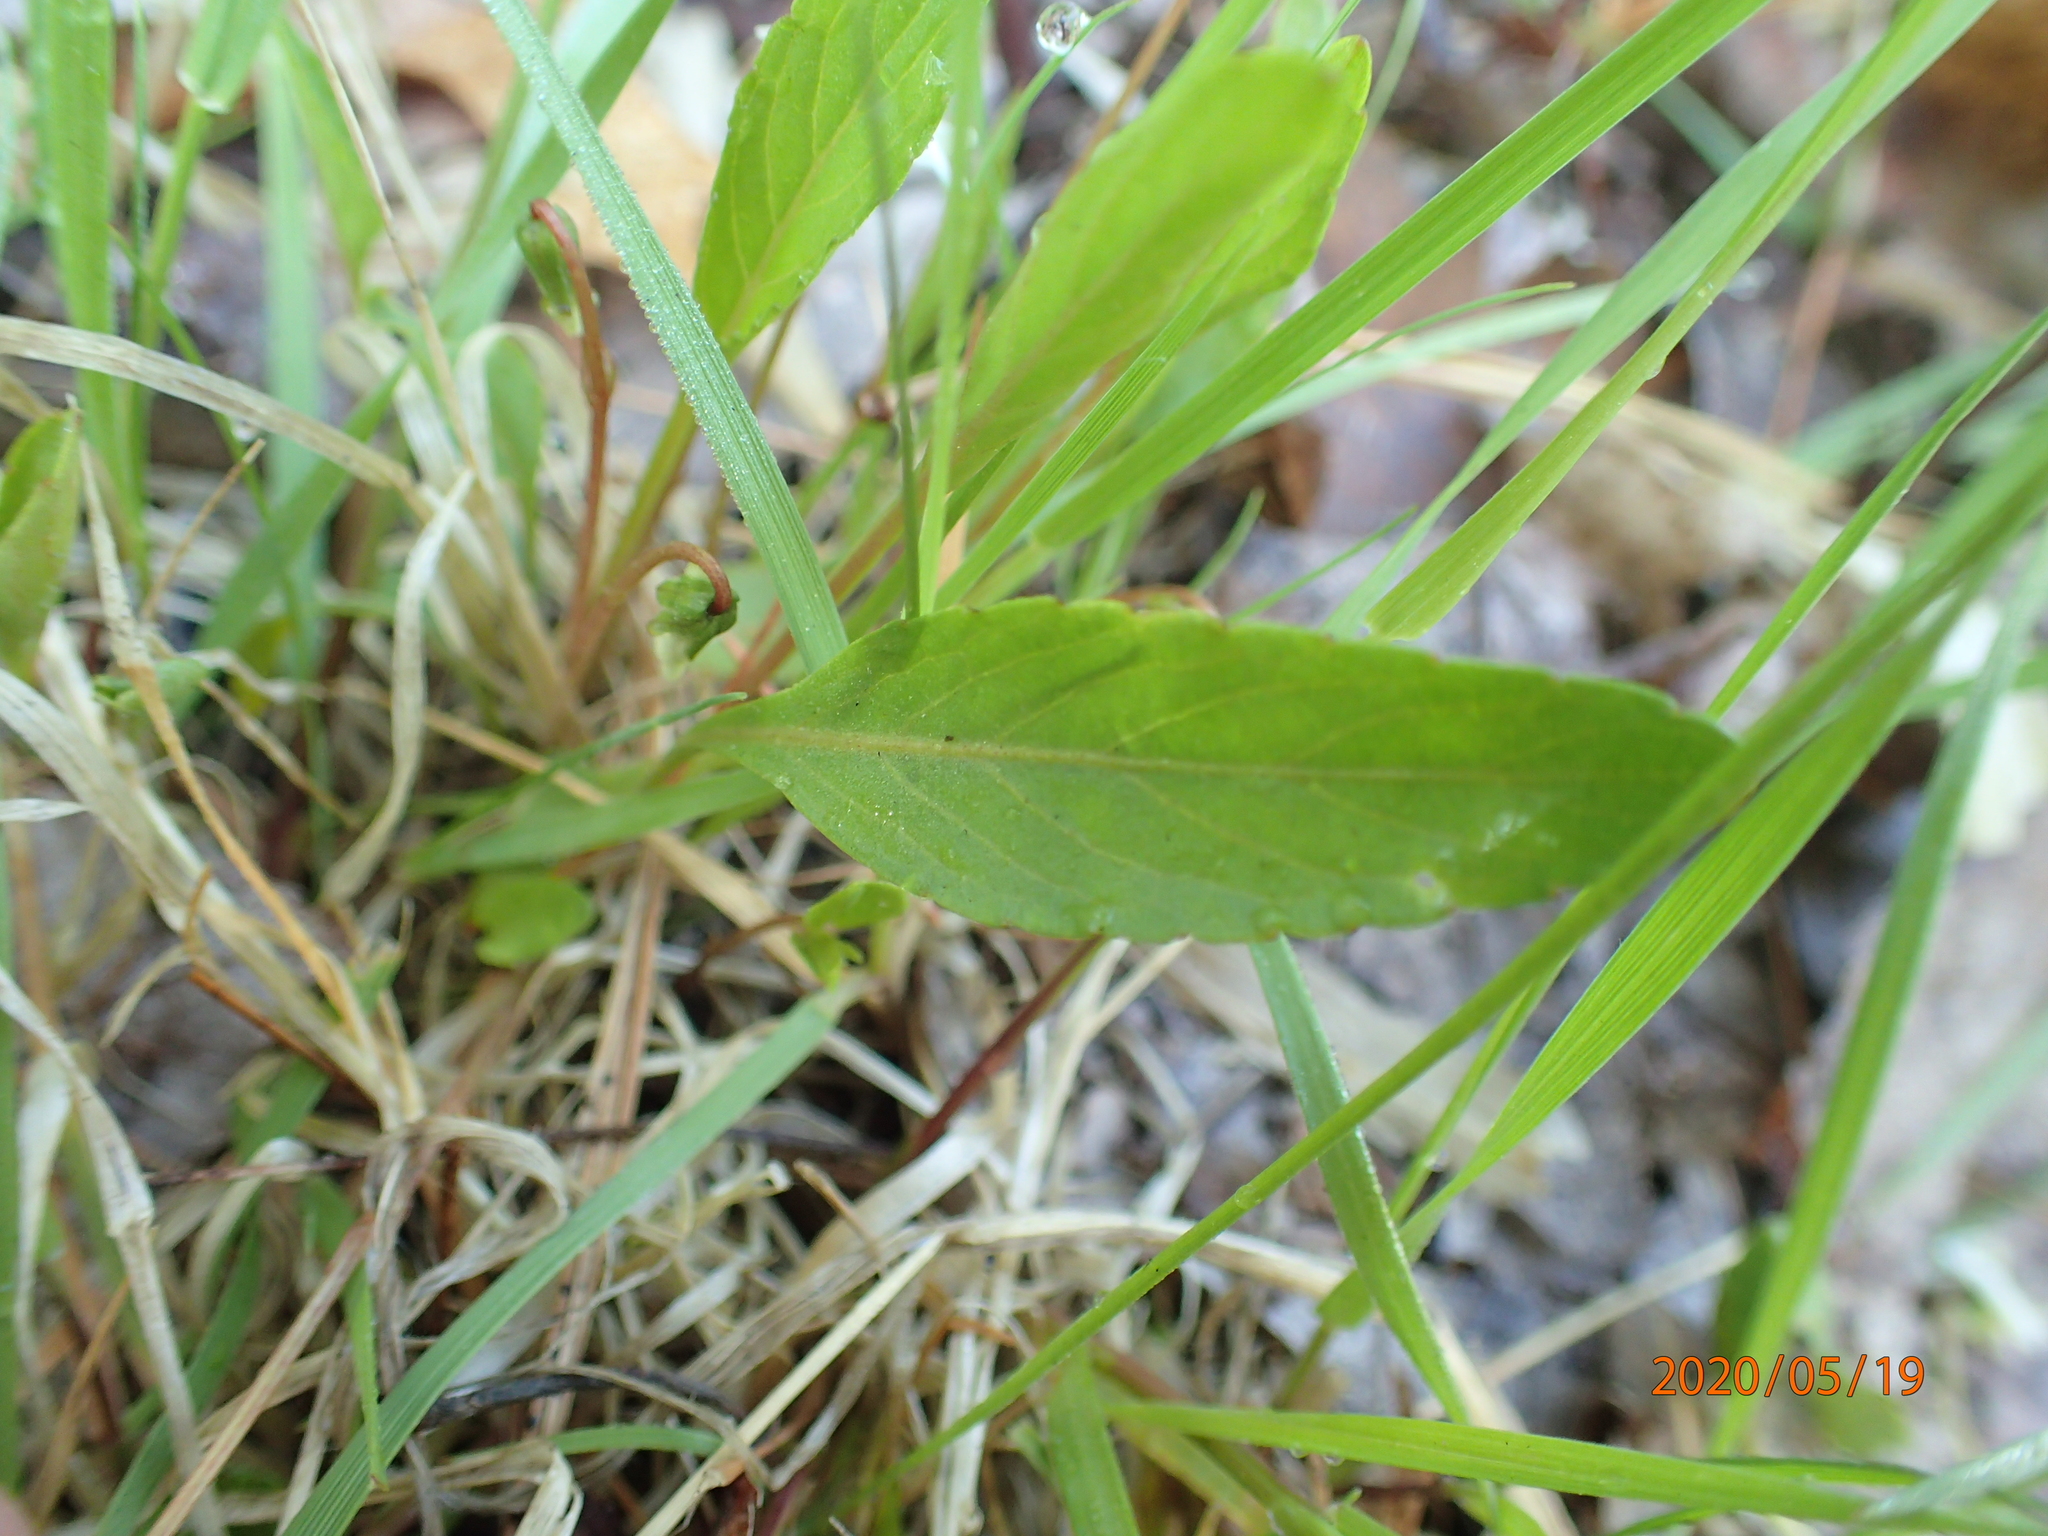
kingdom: Plantae
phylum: Tracheophyta
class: Magnoliopsida
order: Malpighiales
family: Violaceae
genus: Viola
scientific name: Viola lanceolata
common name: Bog white violet
